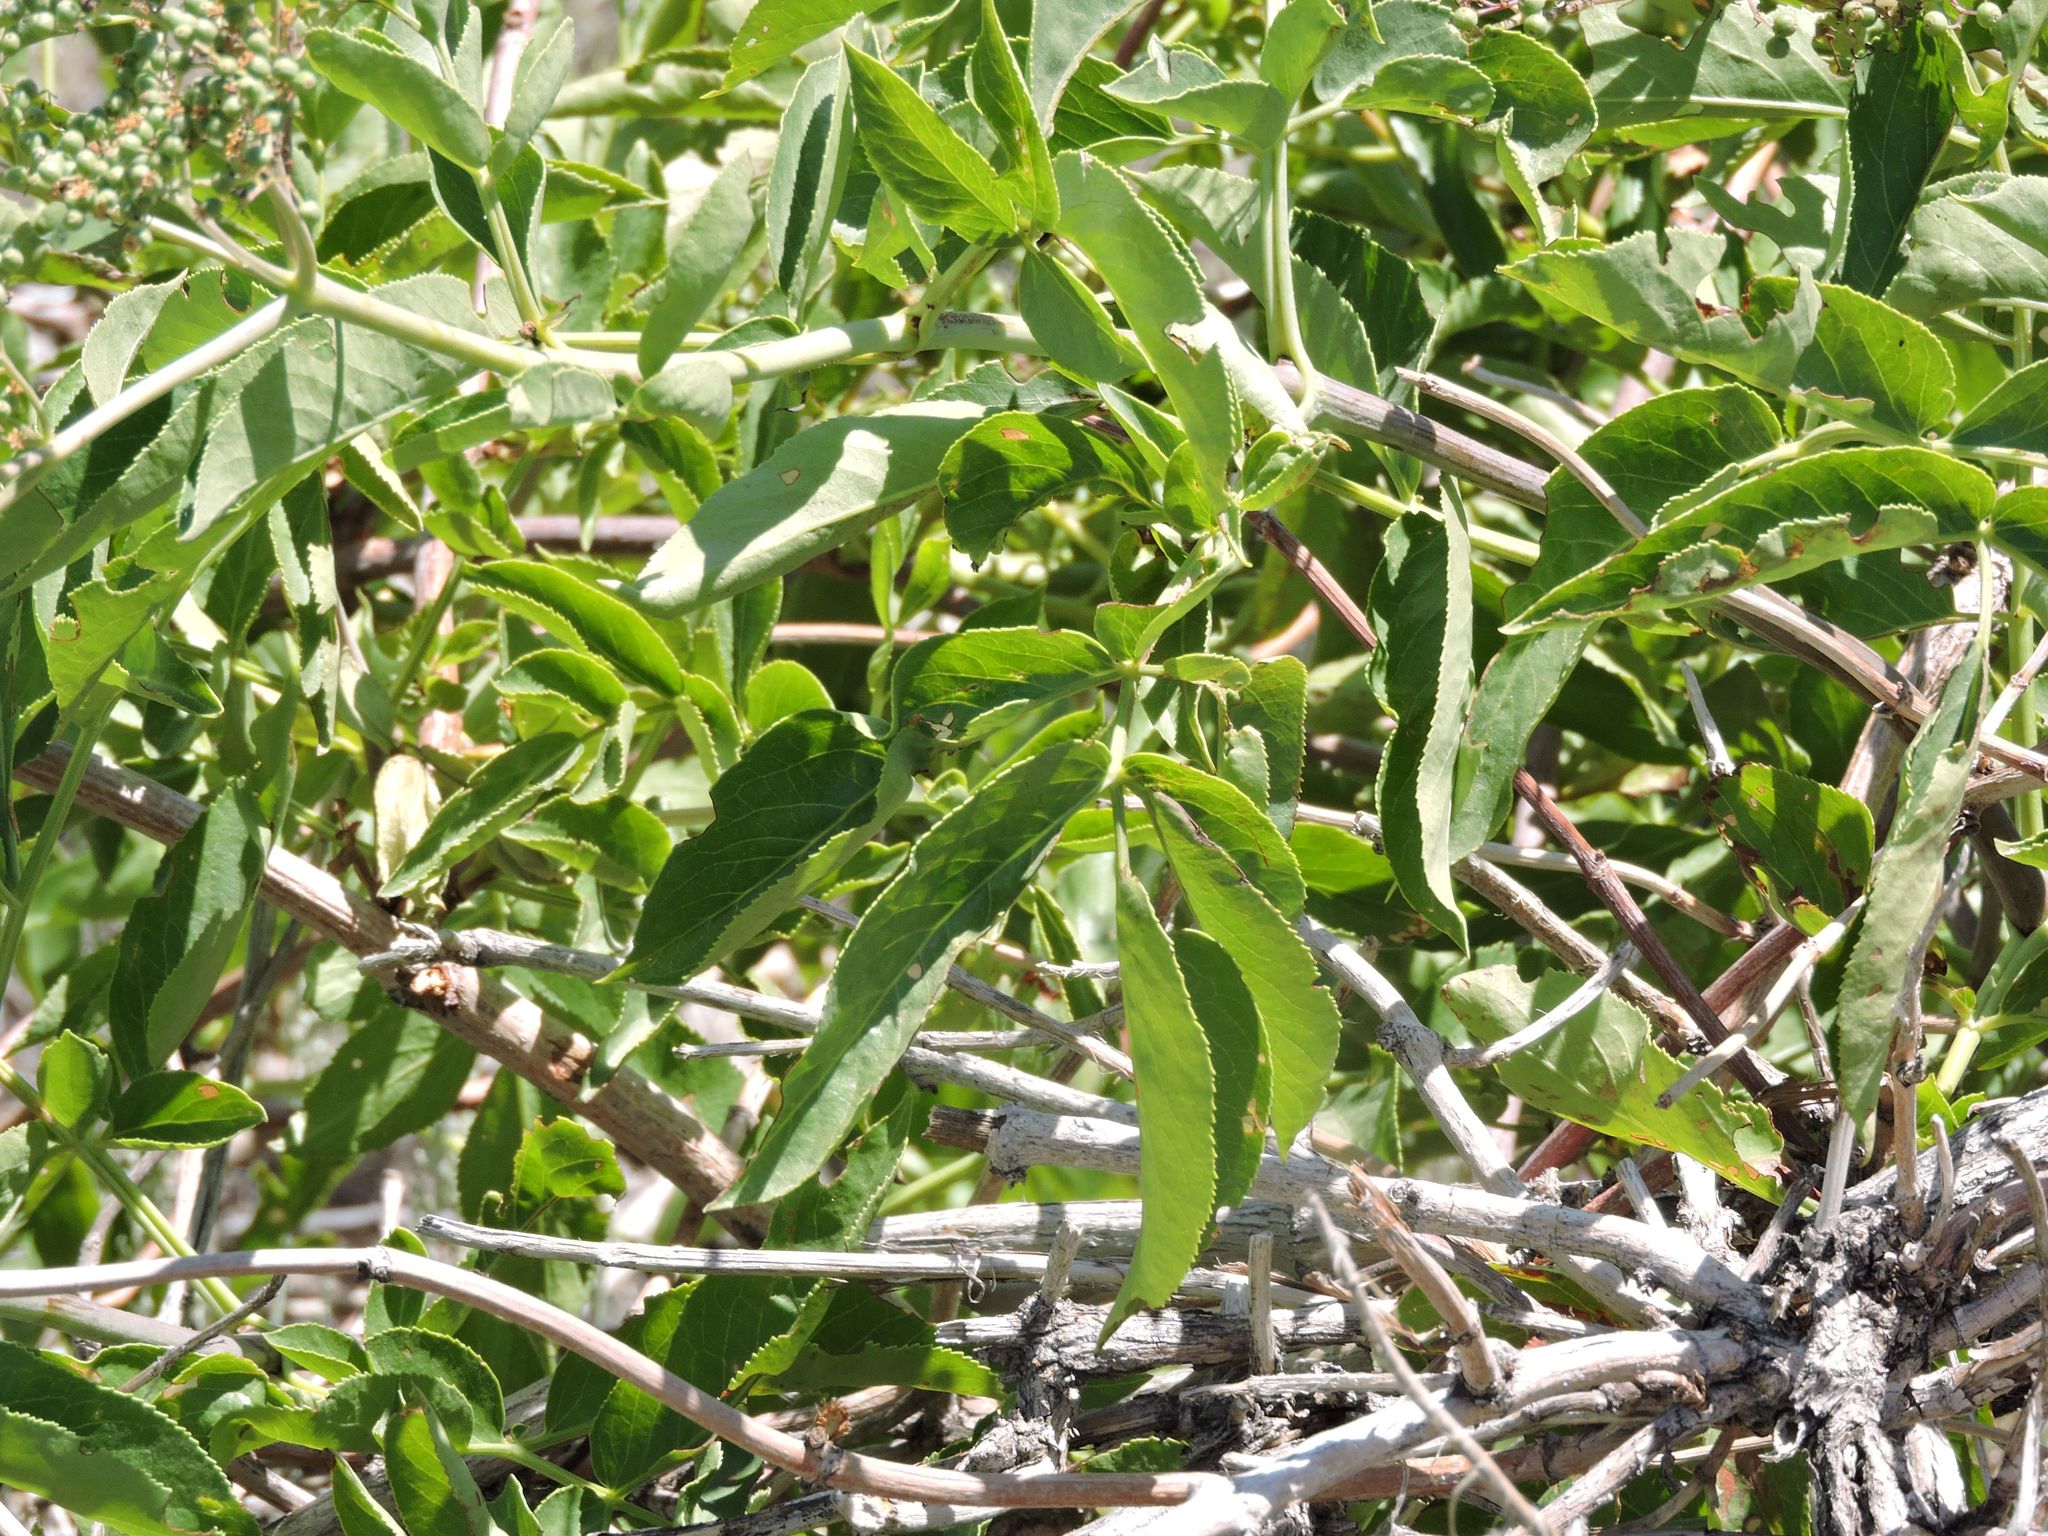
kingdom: Plantae
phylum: Tracheophyta
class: Magnoliopsida
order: Dipsacales
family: Viburnaceae
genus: Sambucus
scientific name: Sambucus cerulea
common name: Blue elder
